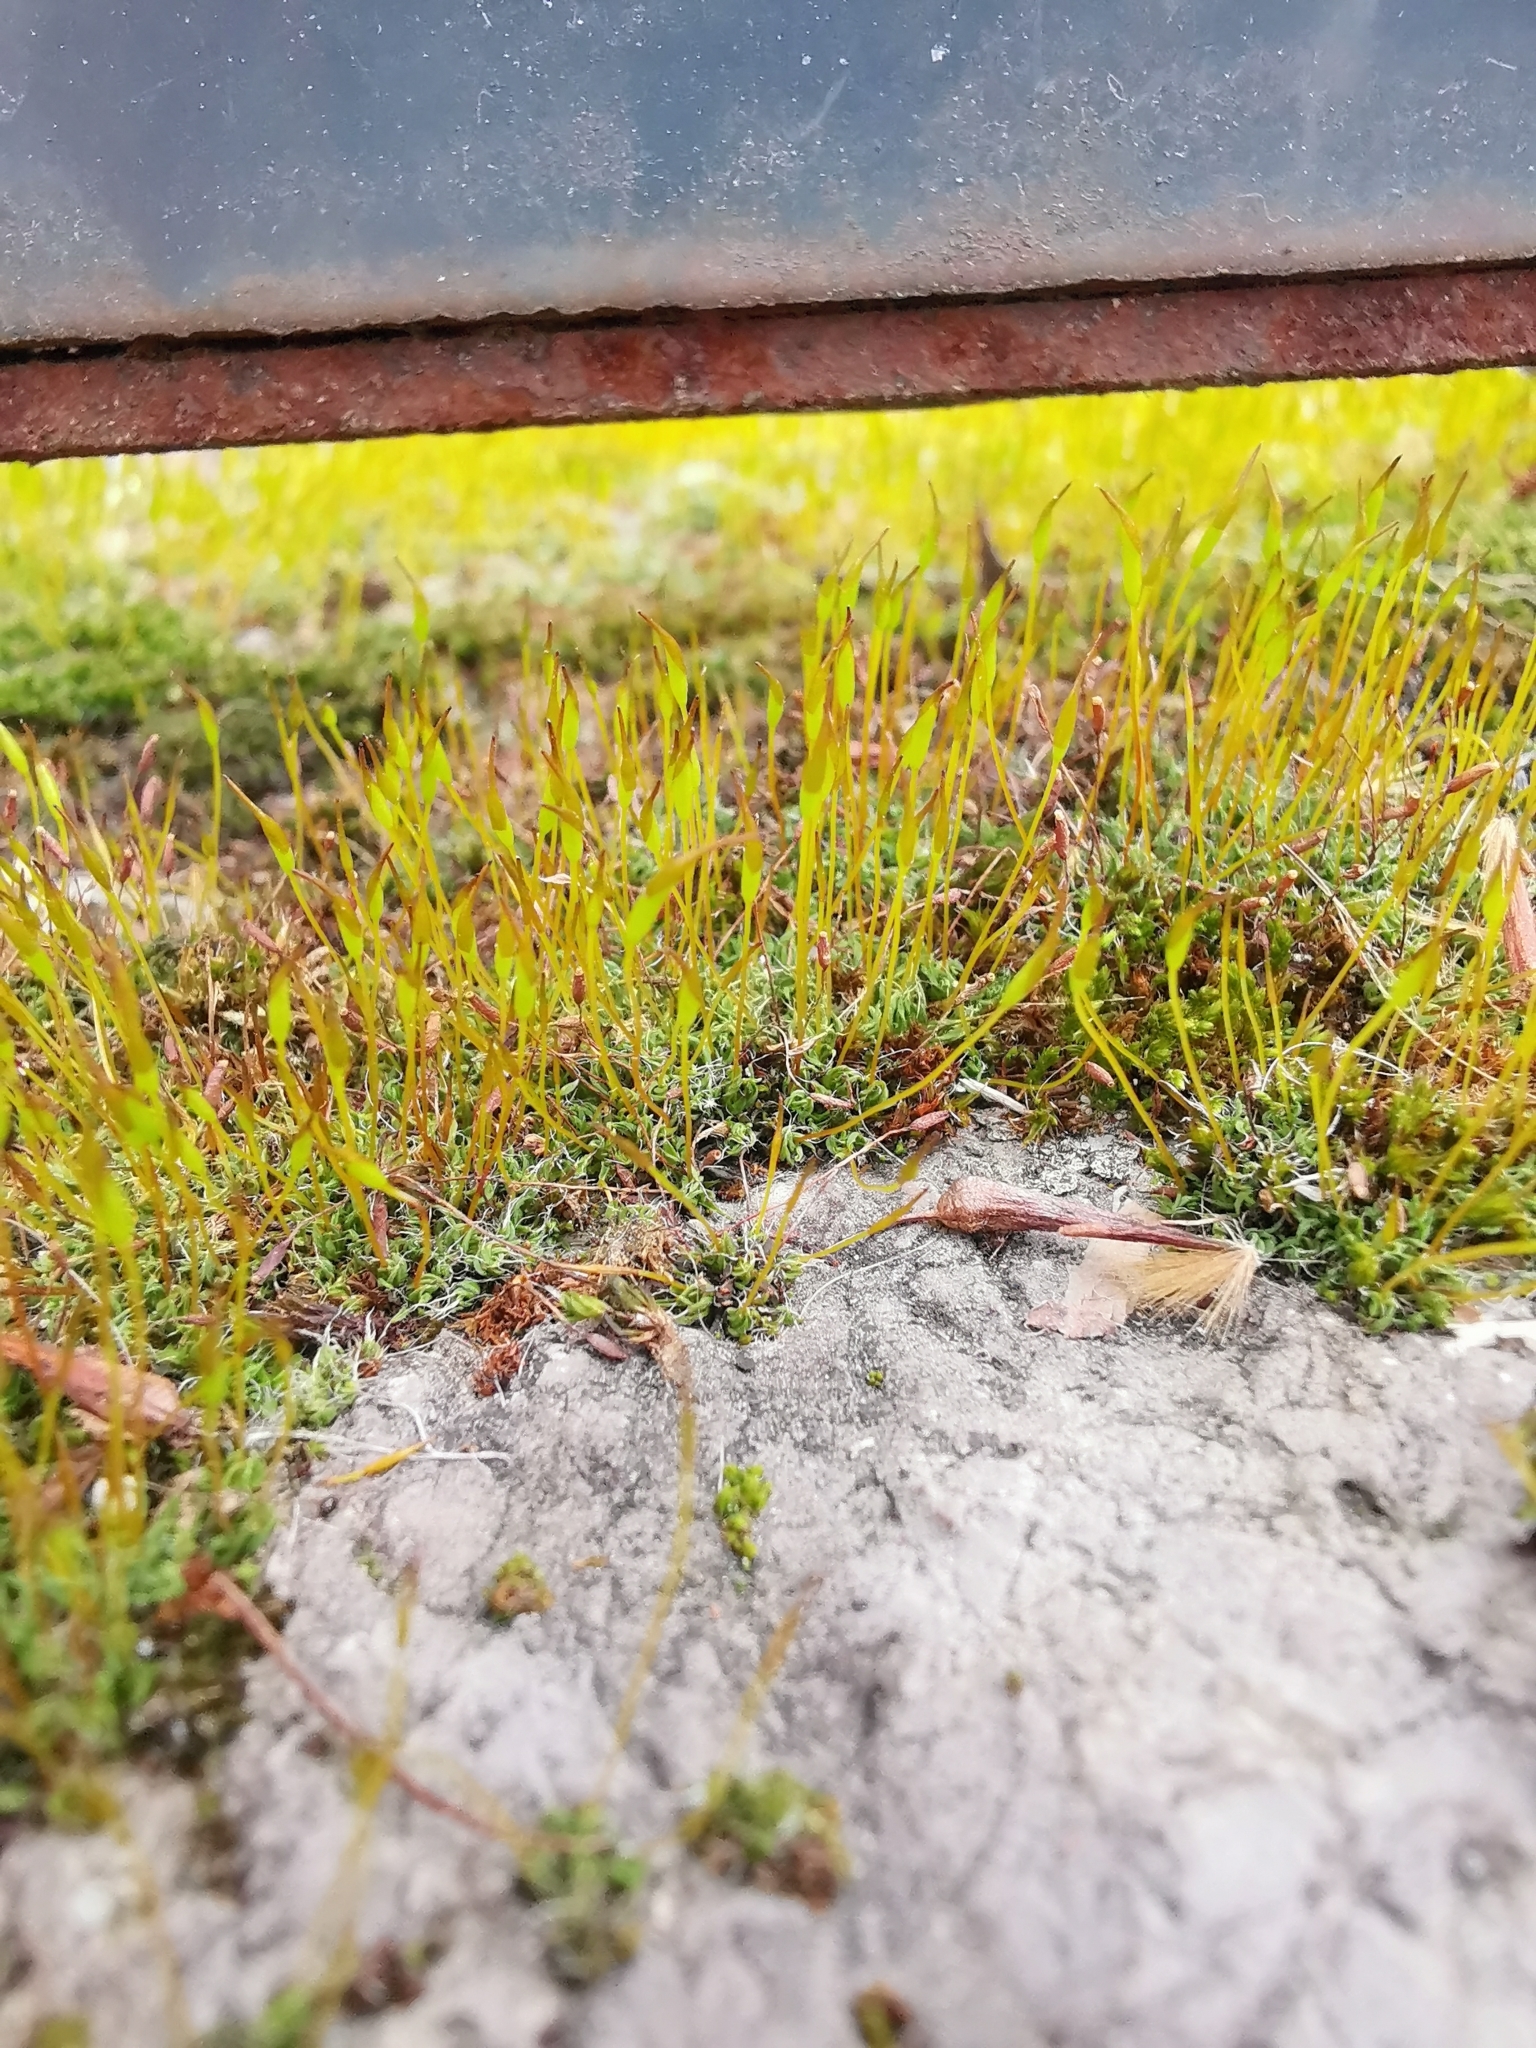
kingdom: Plantae
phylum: Bryophyta
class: Bryopsida
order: Pottiales
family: Pottiaceae
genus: Tortula
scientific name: Tortula muralis
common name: Wall screw-moss
